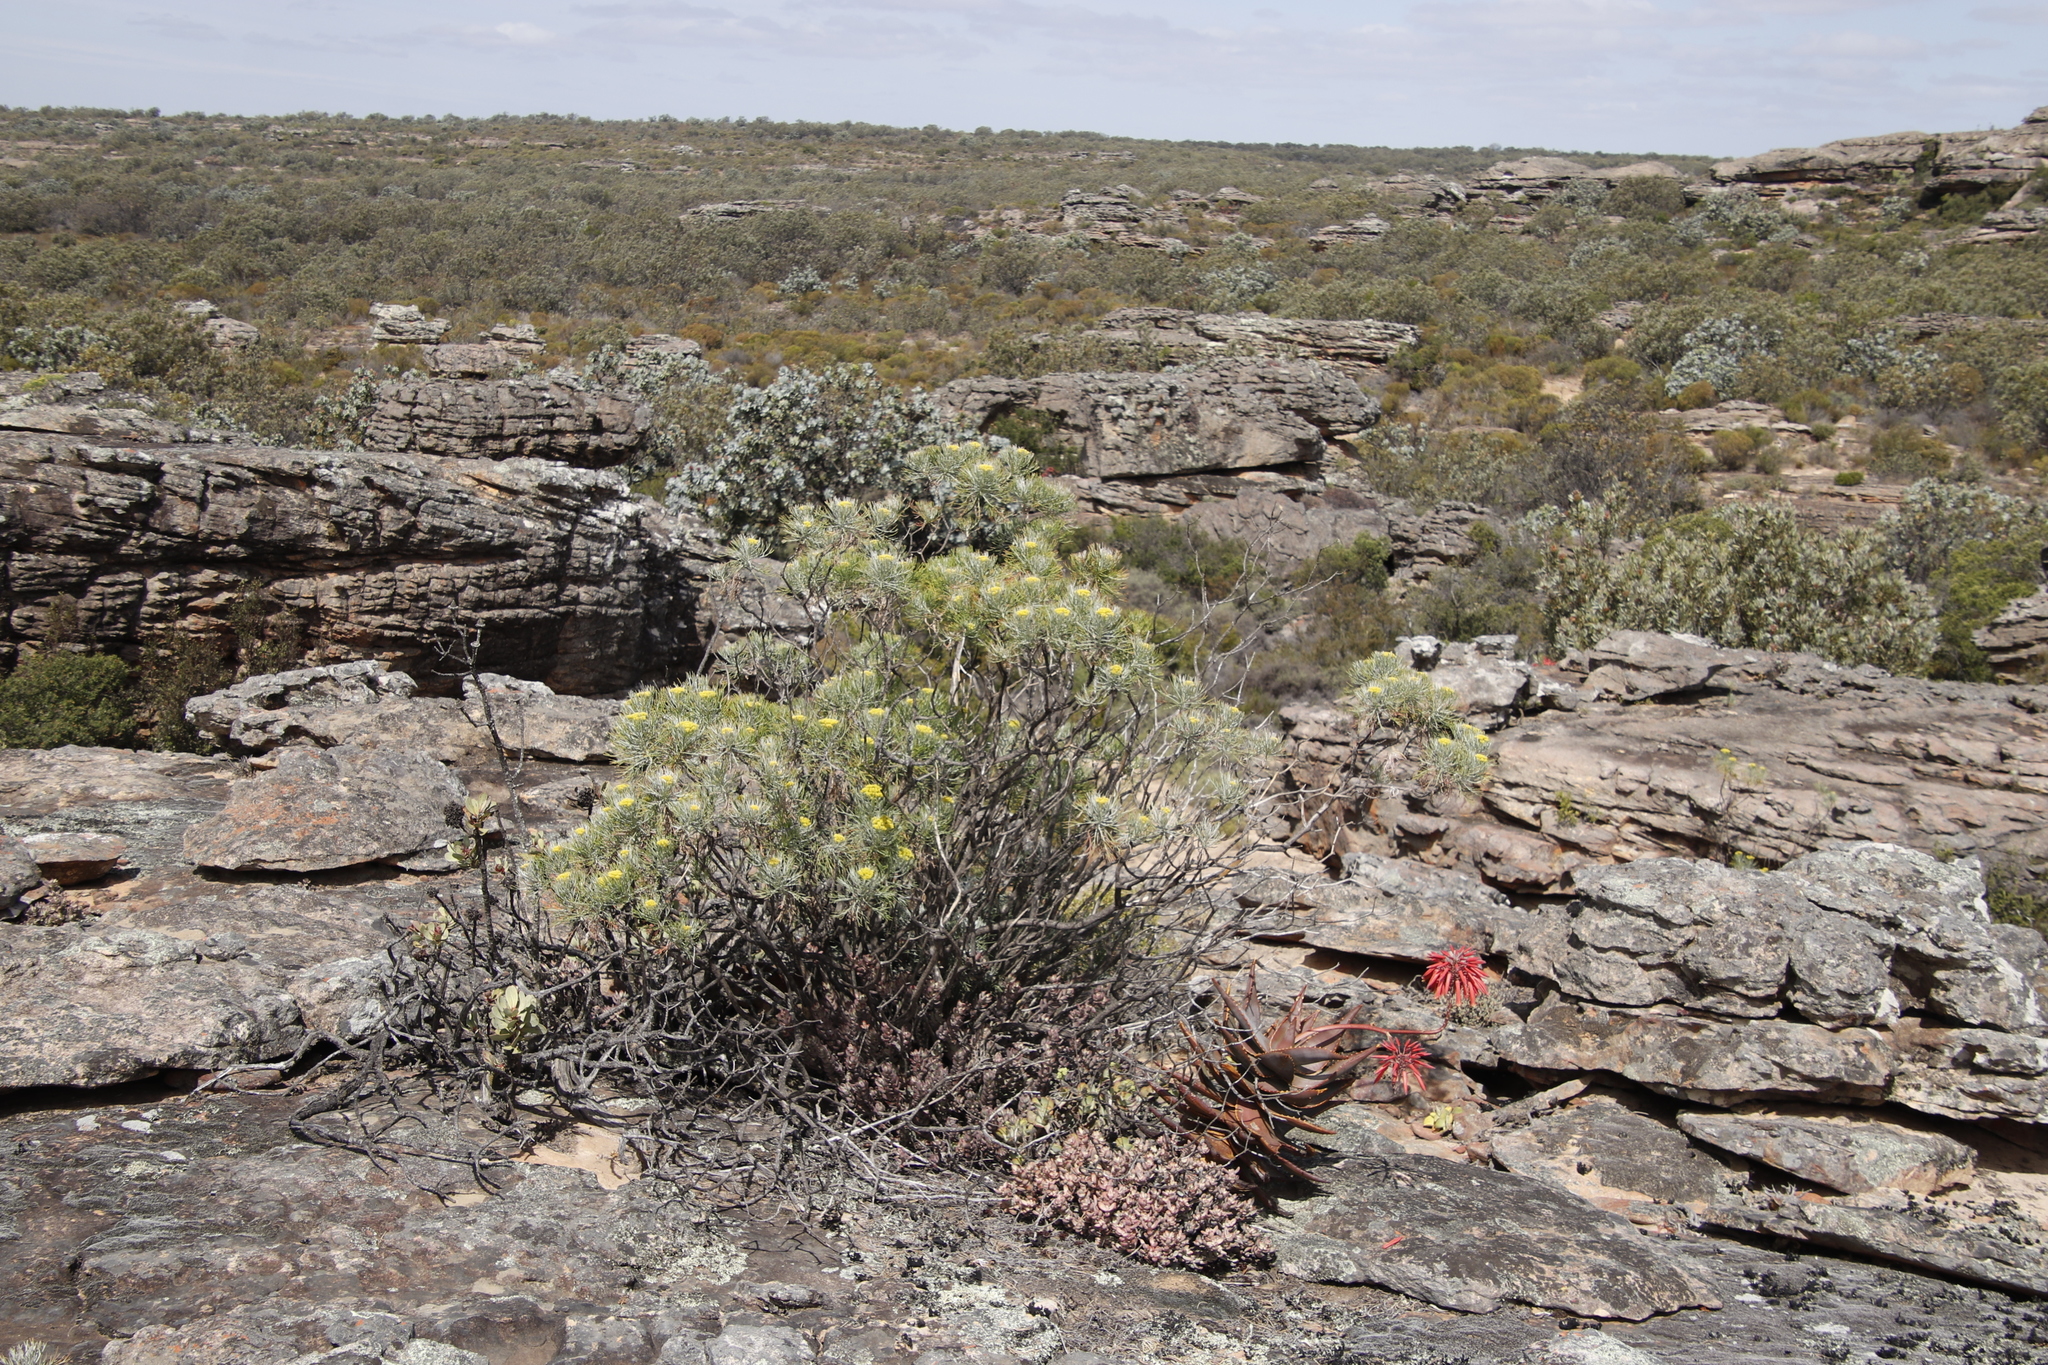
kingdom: Plantae
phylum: Tracheophyta
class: Magnoliopsida
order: Asterales
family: Asteraceae
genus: Hymenolepis
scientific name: Hymenolepis crithmifolia
